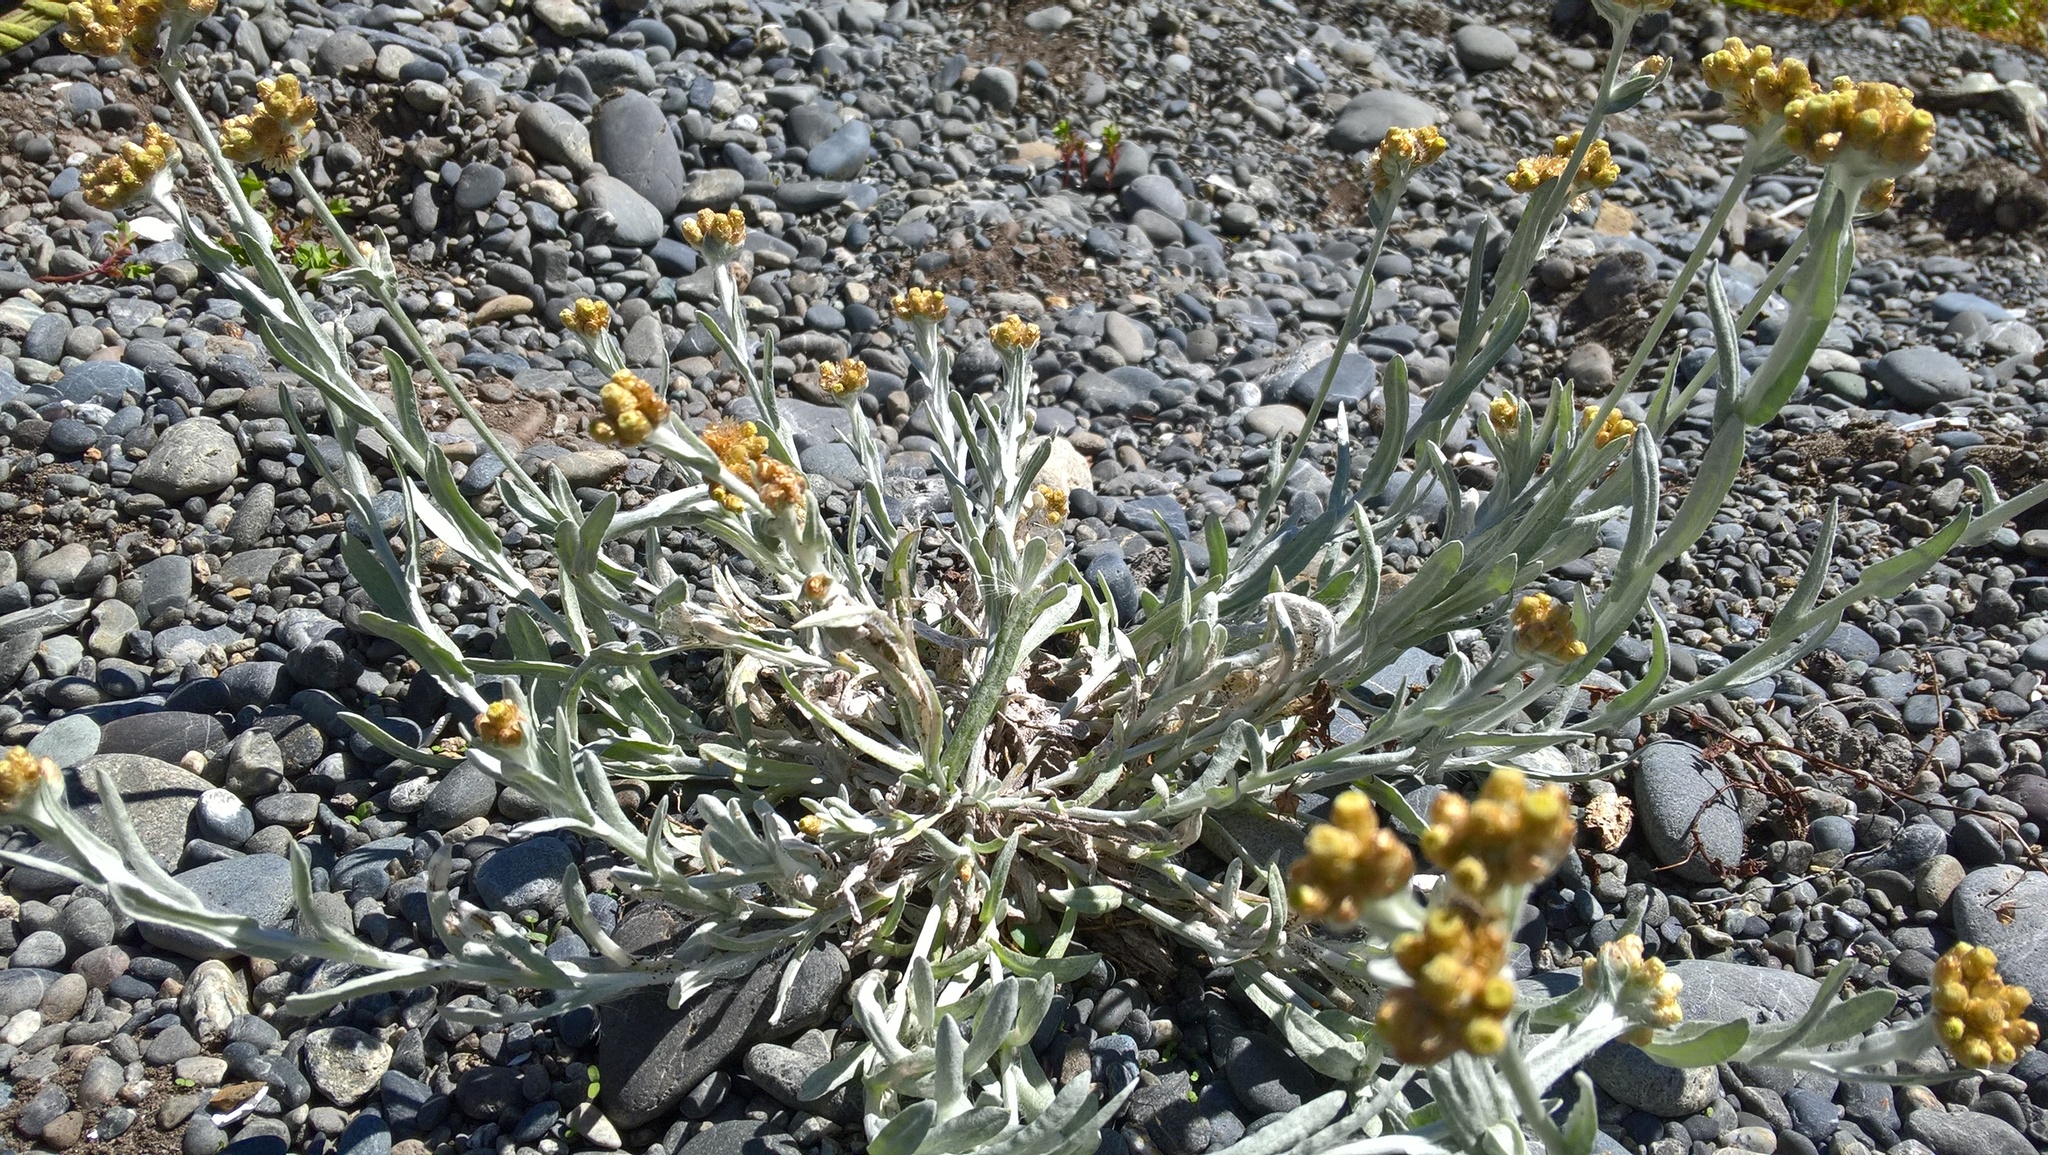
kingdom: Plantae
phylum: Tracheophyta
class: Magnoliopsida
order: Asterales
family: Asteraceae
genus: Helichrysum
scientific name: Helichrysum luteoalbum
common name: Daisy
